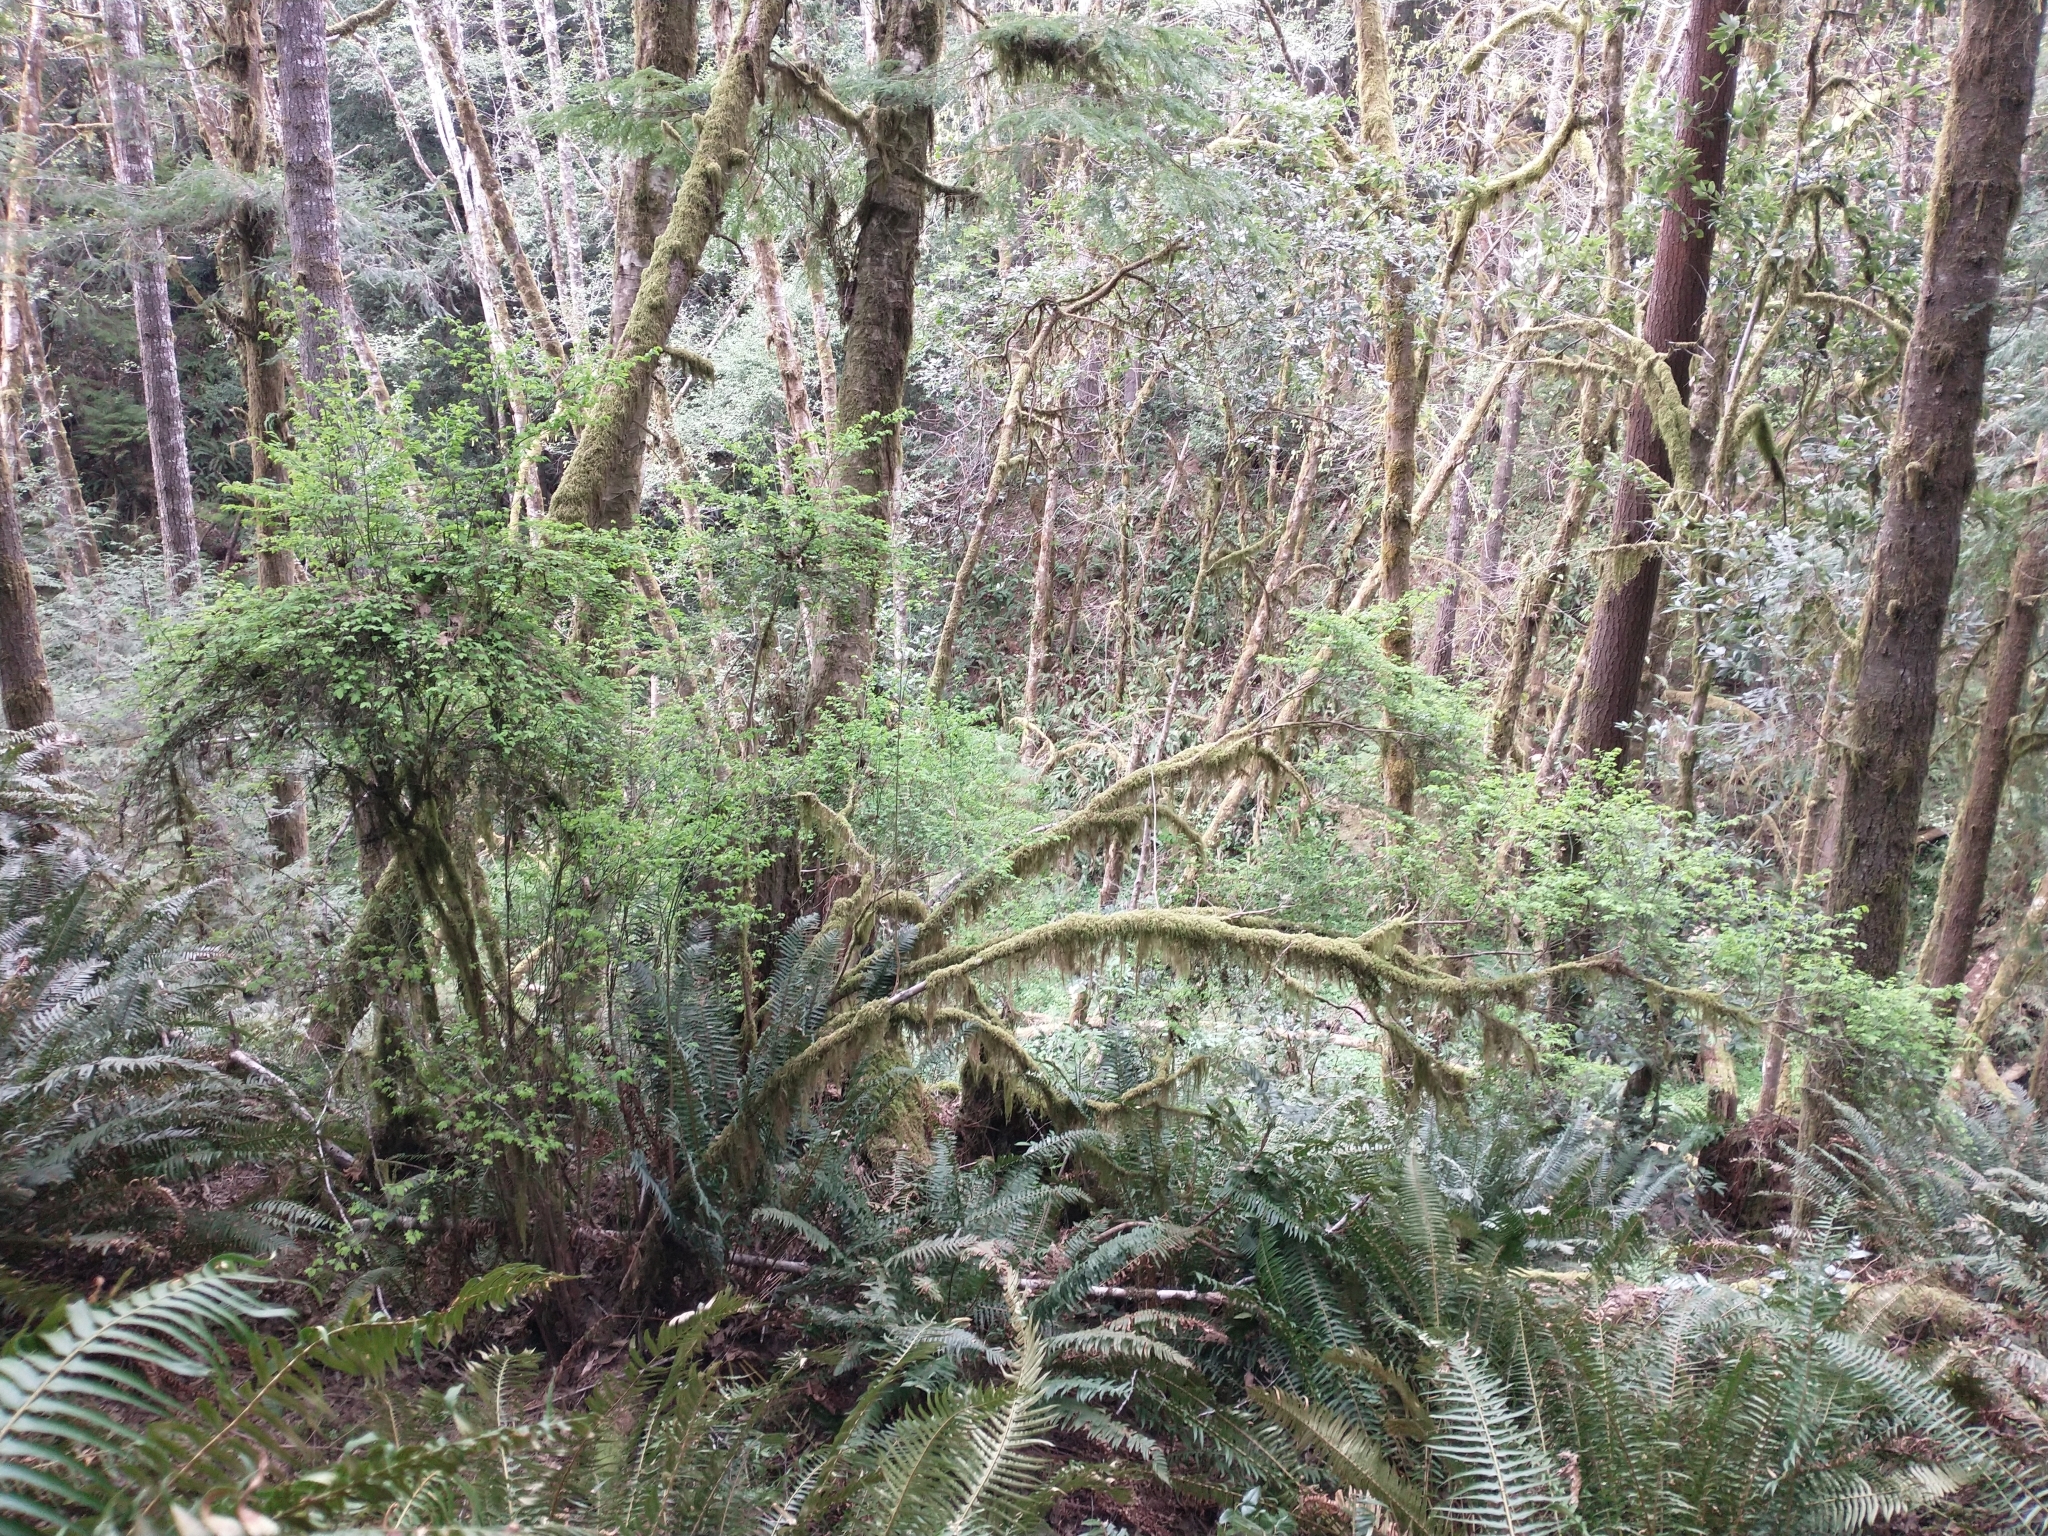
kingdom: Plantae
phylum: Tracheophyta
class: Magnoliopsida
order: Ericales
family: Ericaceae
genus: Vaccinium
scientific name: Vaccinium parvifolium
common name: Red-huckleberry
